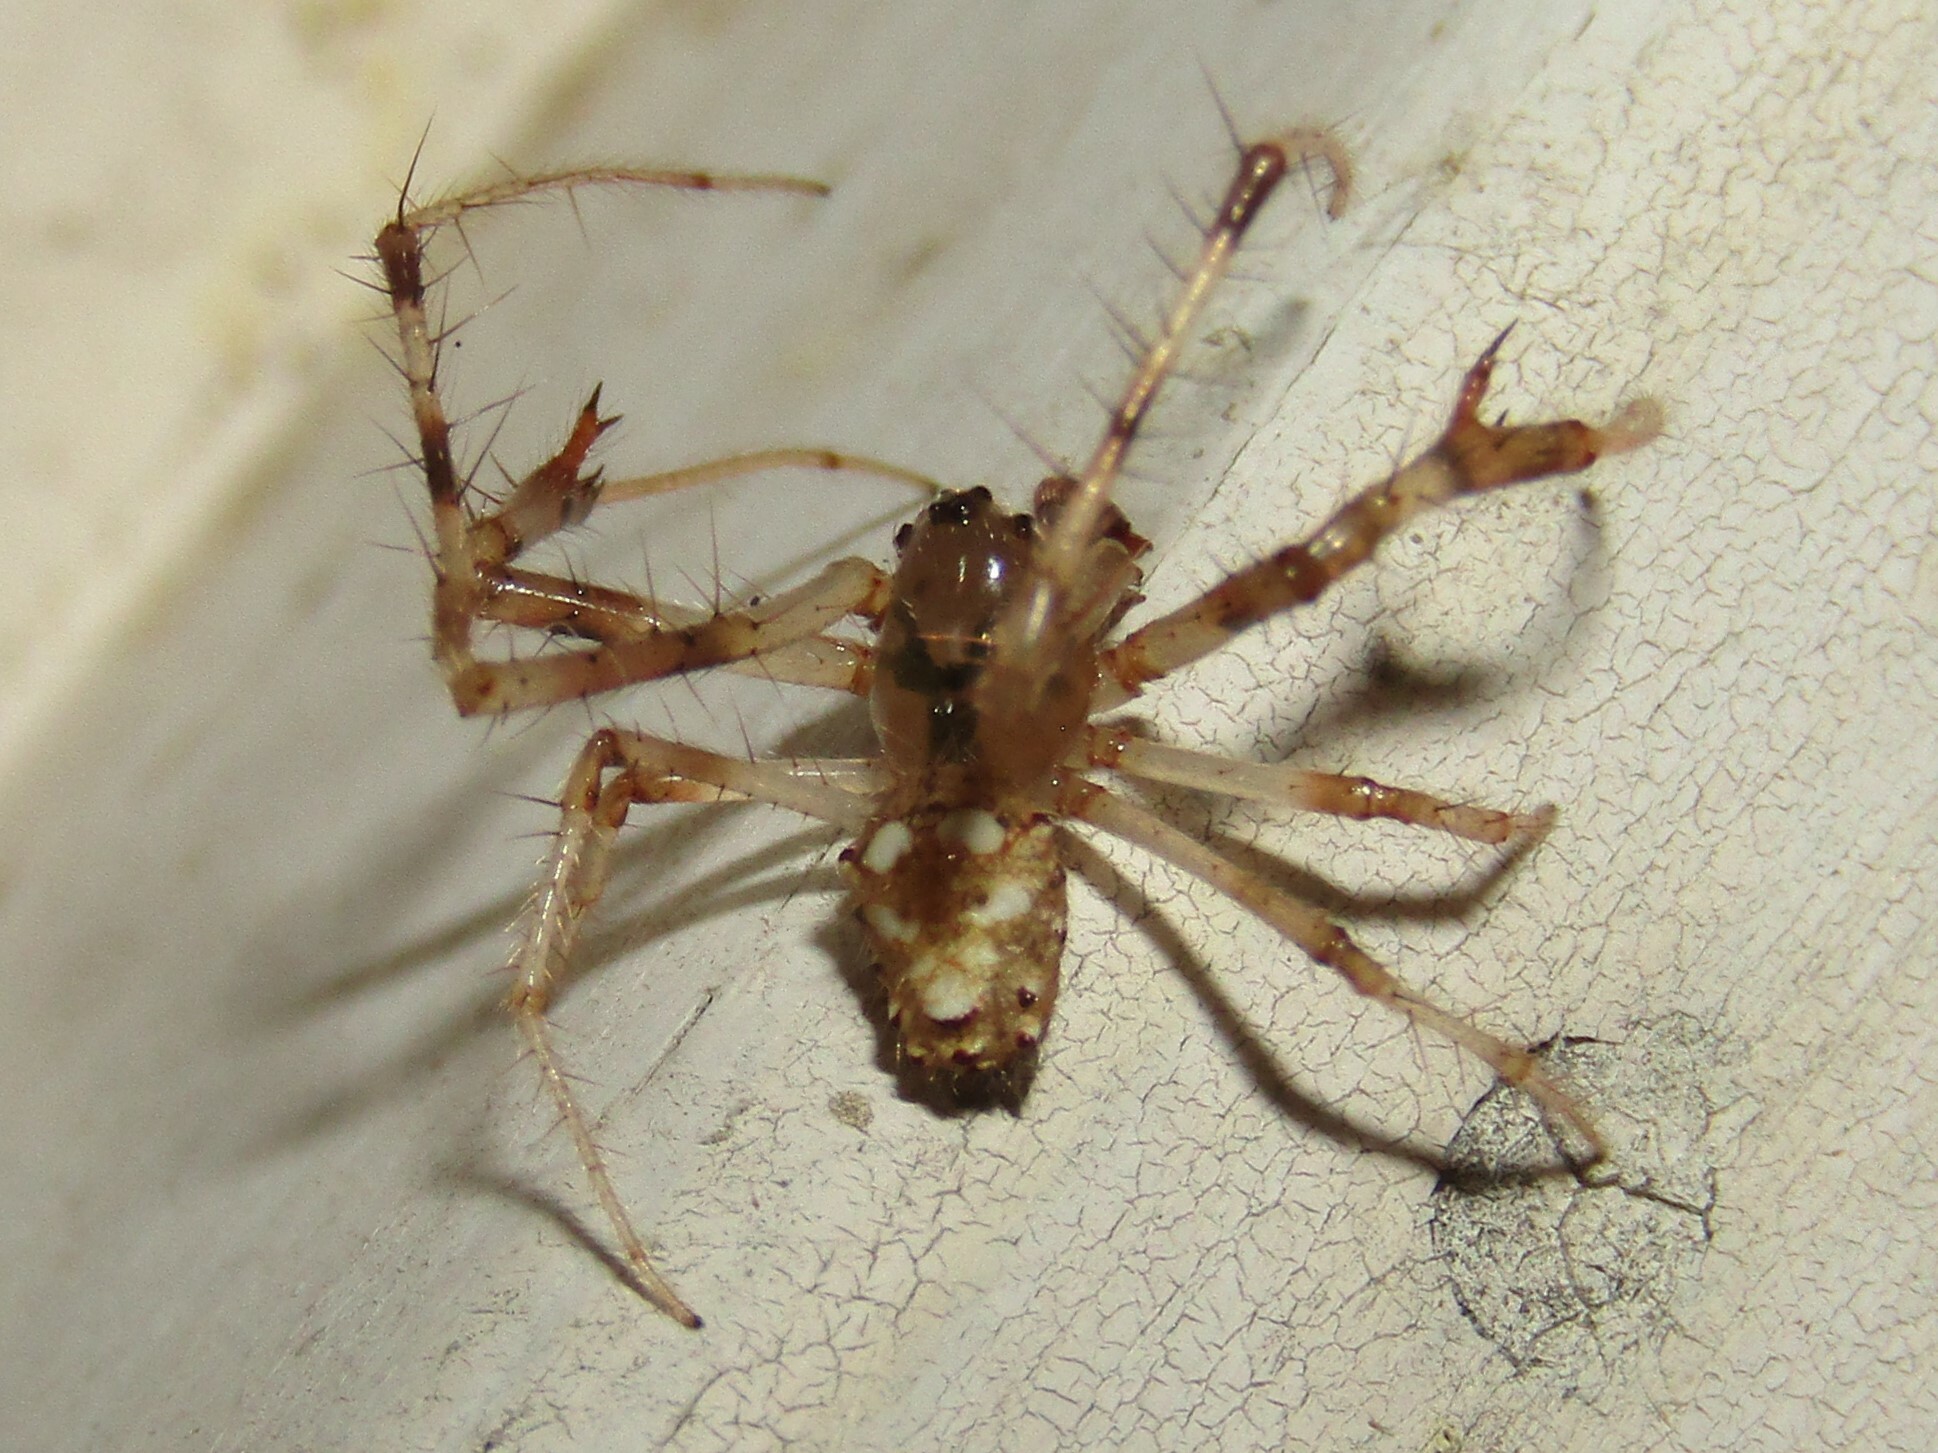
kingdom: Animalia
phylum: Arthropoda
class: Arachnida
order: Araneae
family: Araneidae
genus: Verrucosa
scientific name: Verrucosa arenata
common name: Orb weavers
